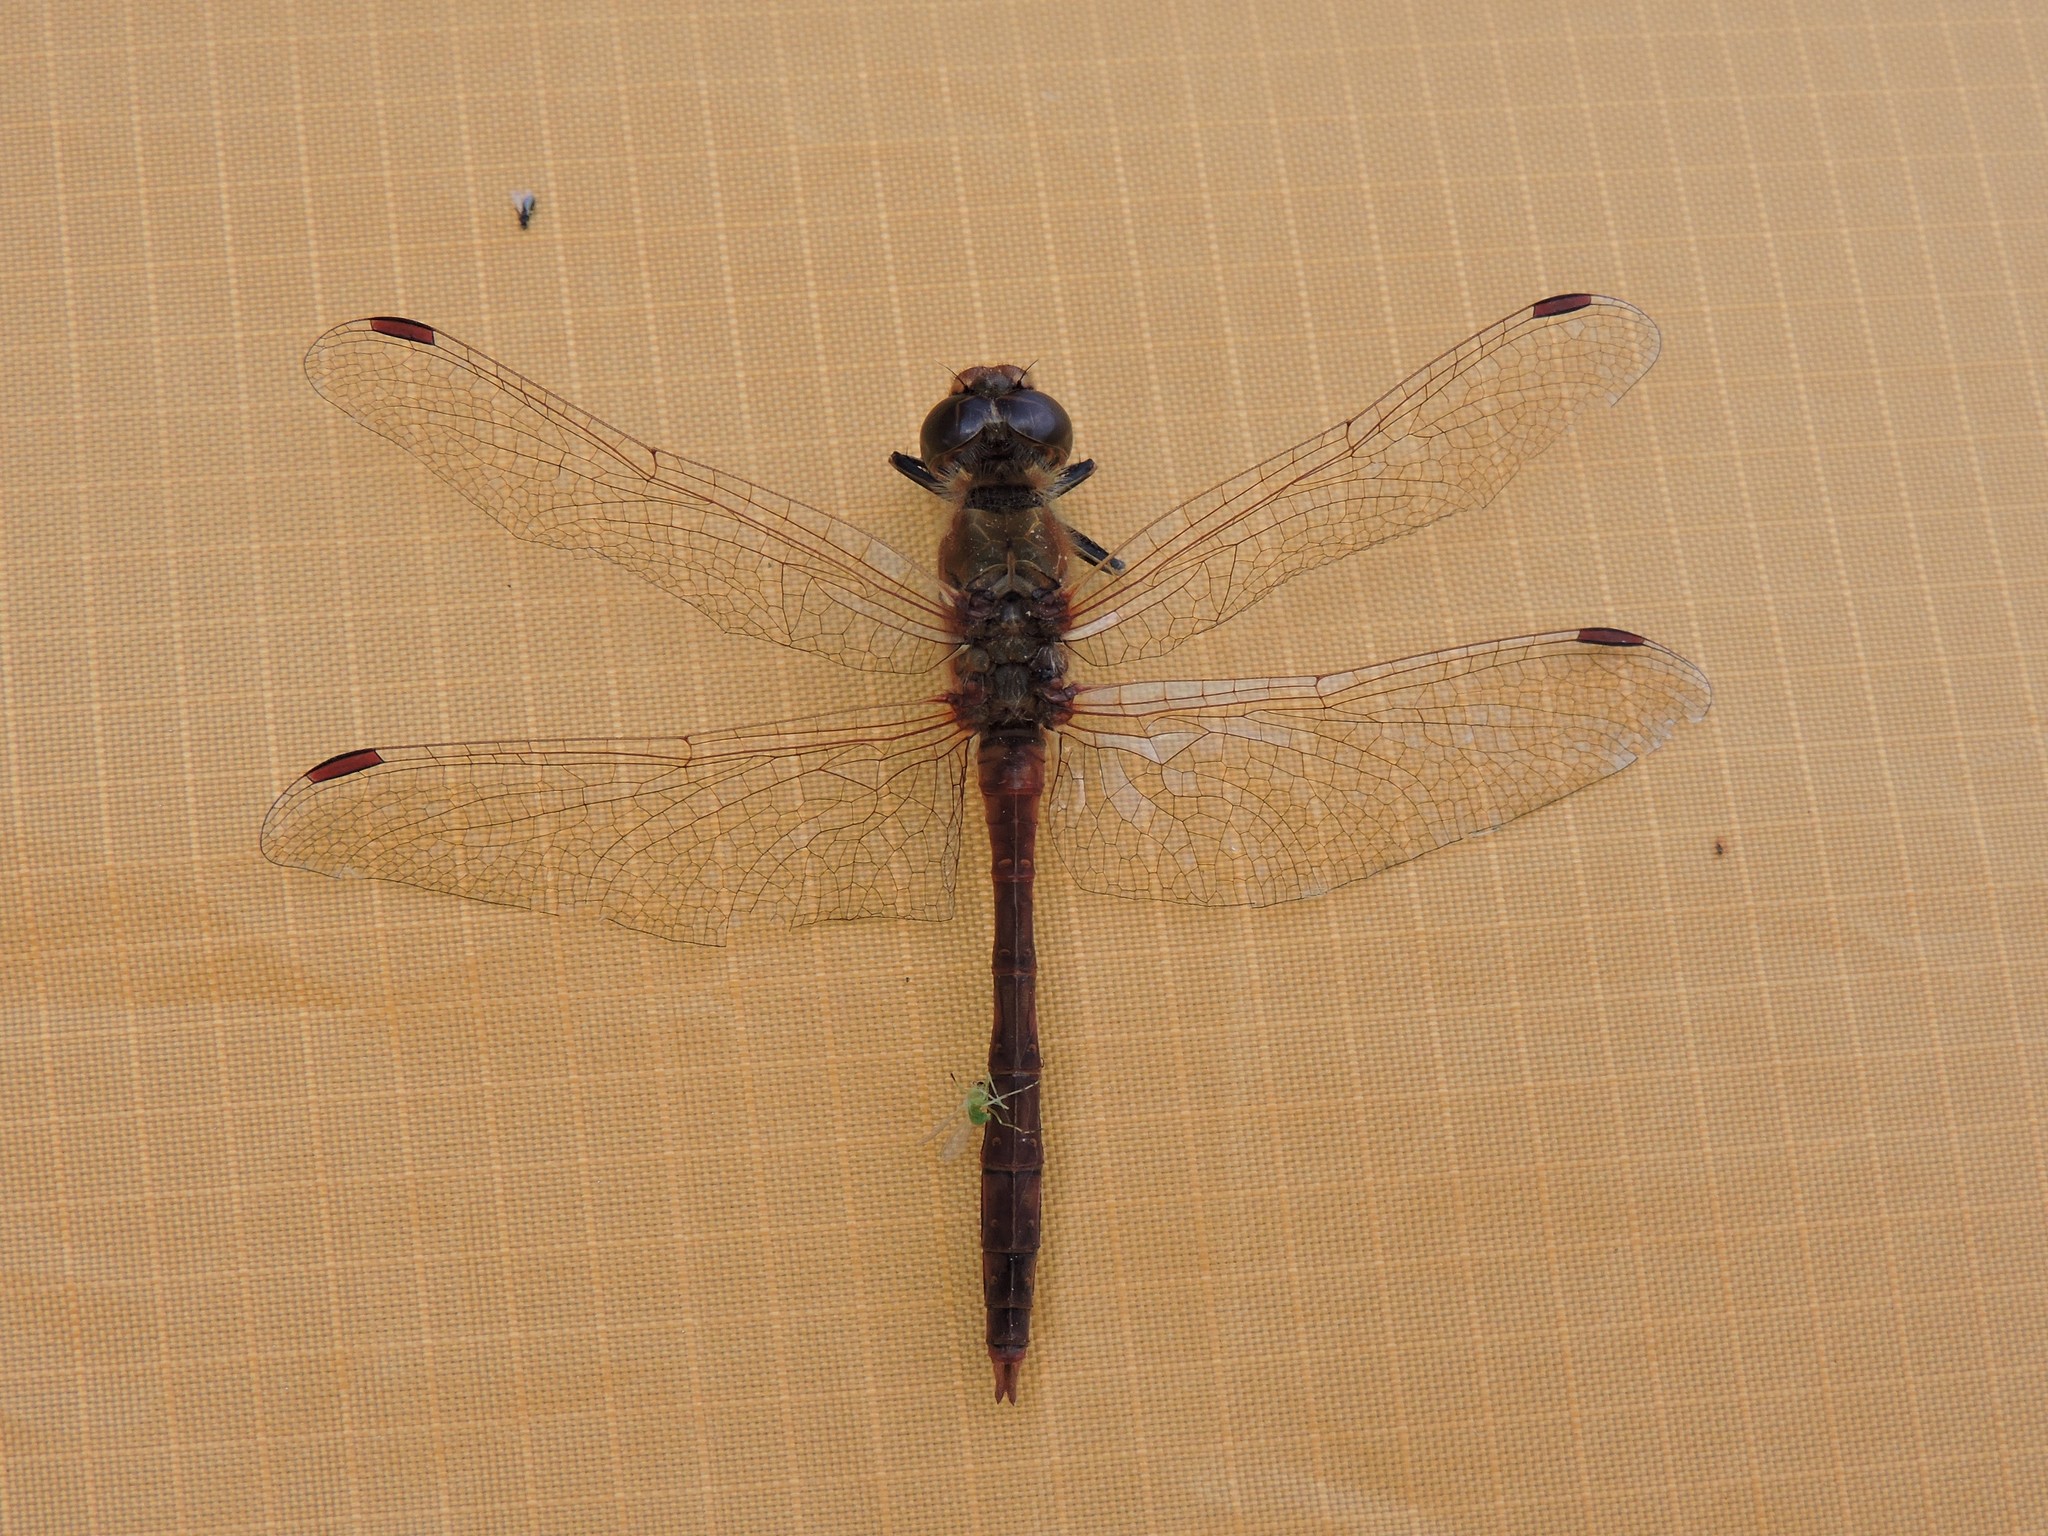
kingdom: Animalia
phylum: Arthropoda
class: Insecta
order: Odonata
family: Libellulidae
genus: Sympetrum
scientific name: Sympetrum vulgatum
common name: Vagrant darter
